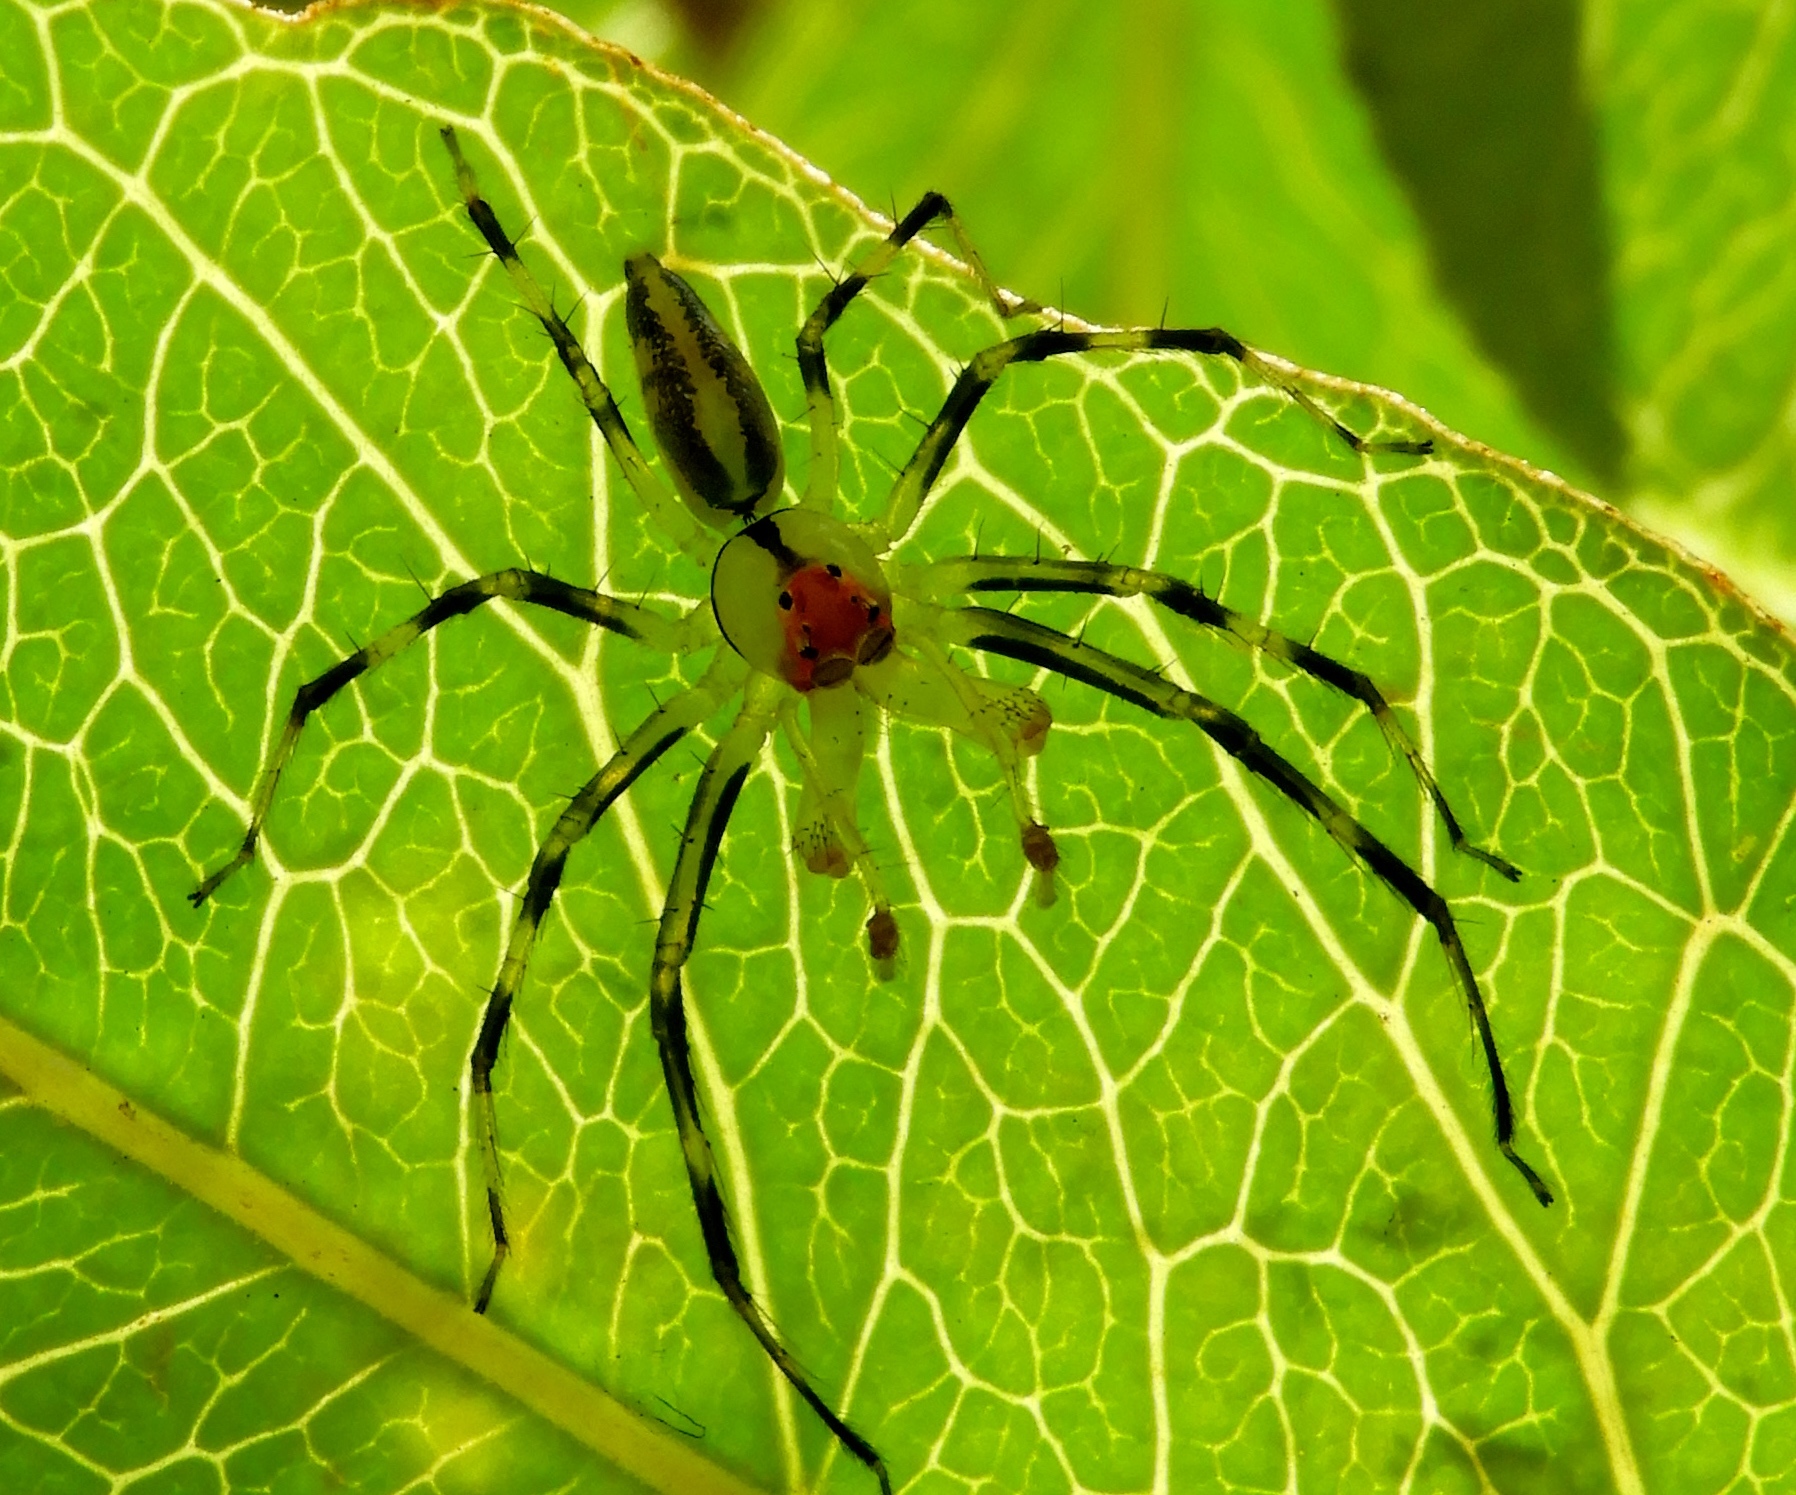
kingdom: Animalia
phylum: Arthropoda
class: Arachnida
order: Araneae
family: Salticidae
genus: Lyssomanes
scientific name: Lyssomanes
